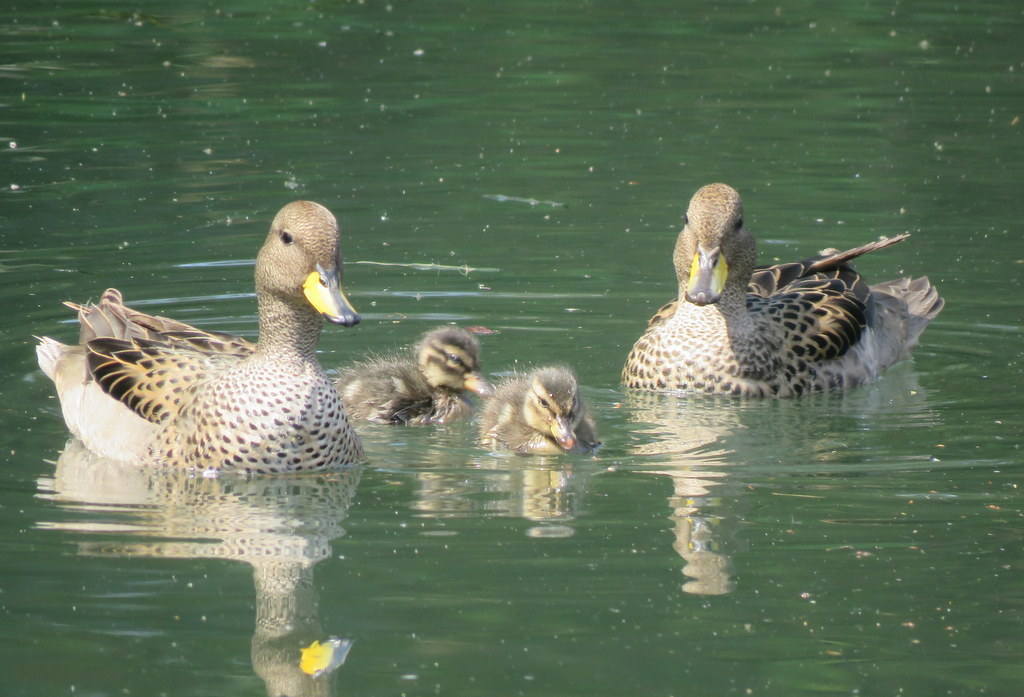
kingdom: Animalia
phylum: Chordata
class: Aves
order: Anseriformes
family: Anatidae
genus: Anas
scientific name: Anas flavirostris
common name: Yellow-billed teal
